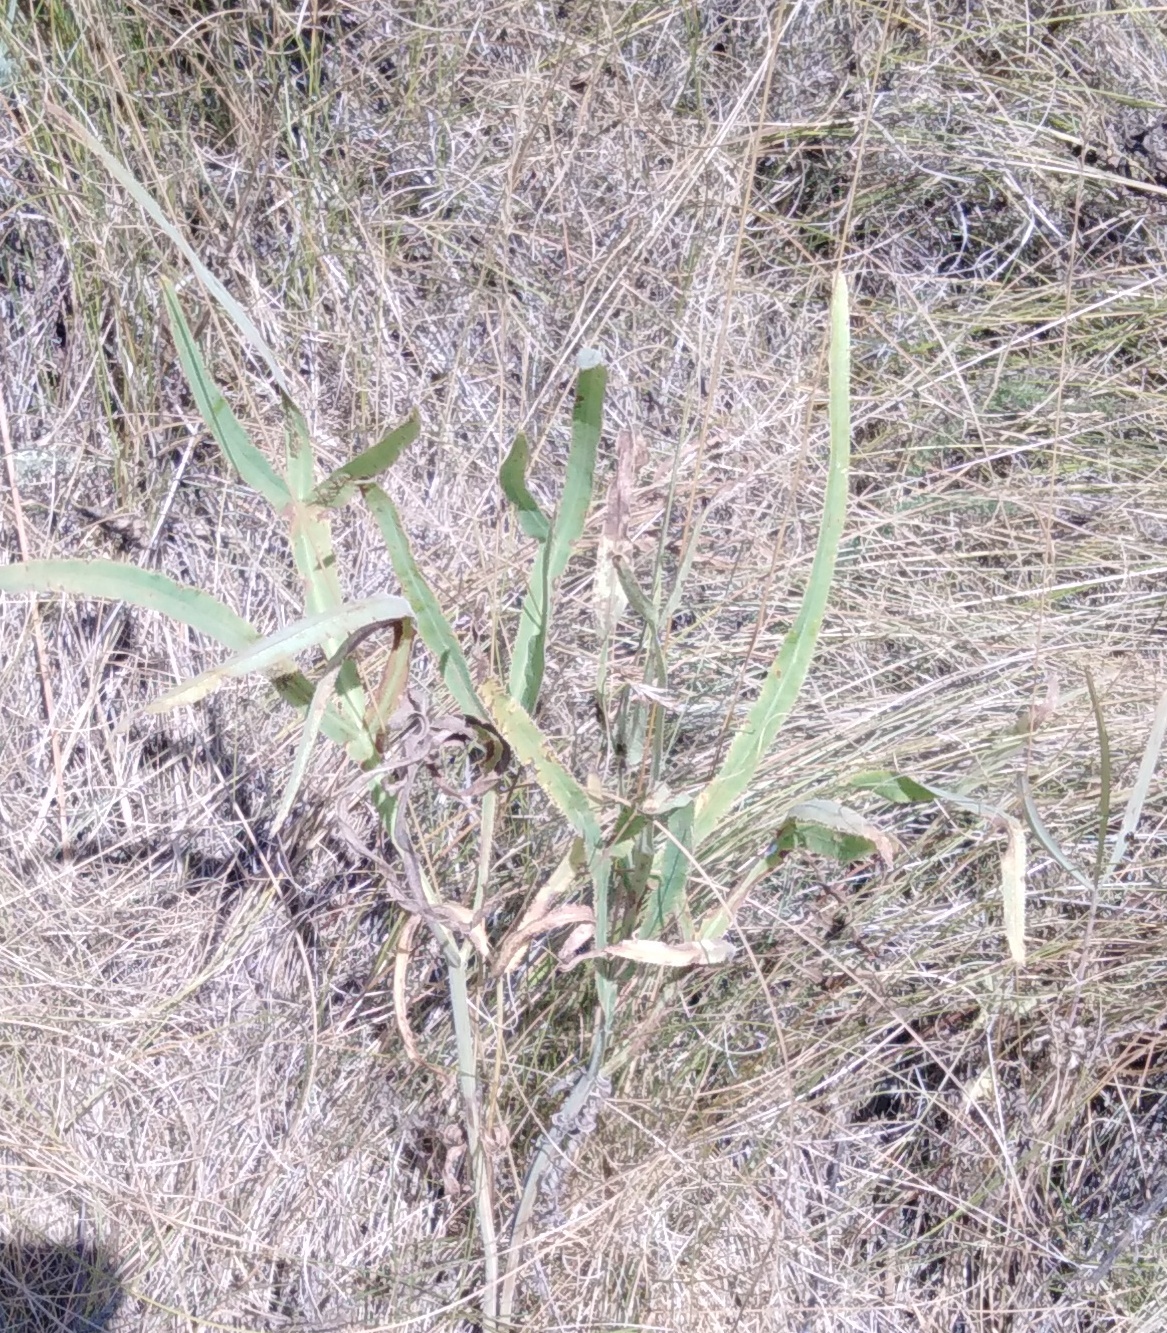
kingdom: Plantae
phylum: Tracheophyta
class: Magnoliopsida
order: Apiales
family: Apiaceae
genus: Falcaria
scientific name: Falcaria vulgaris
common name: Longleaf
